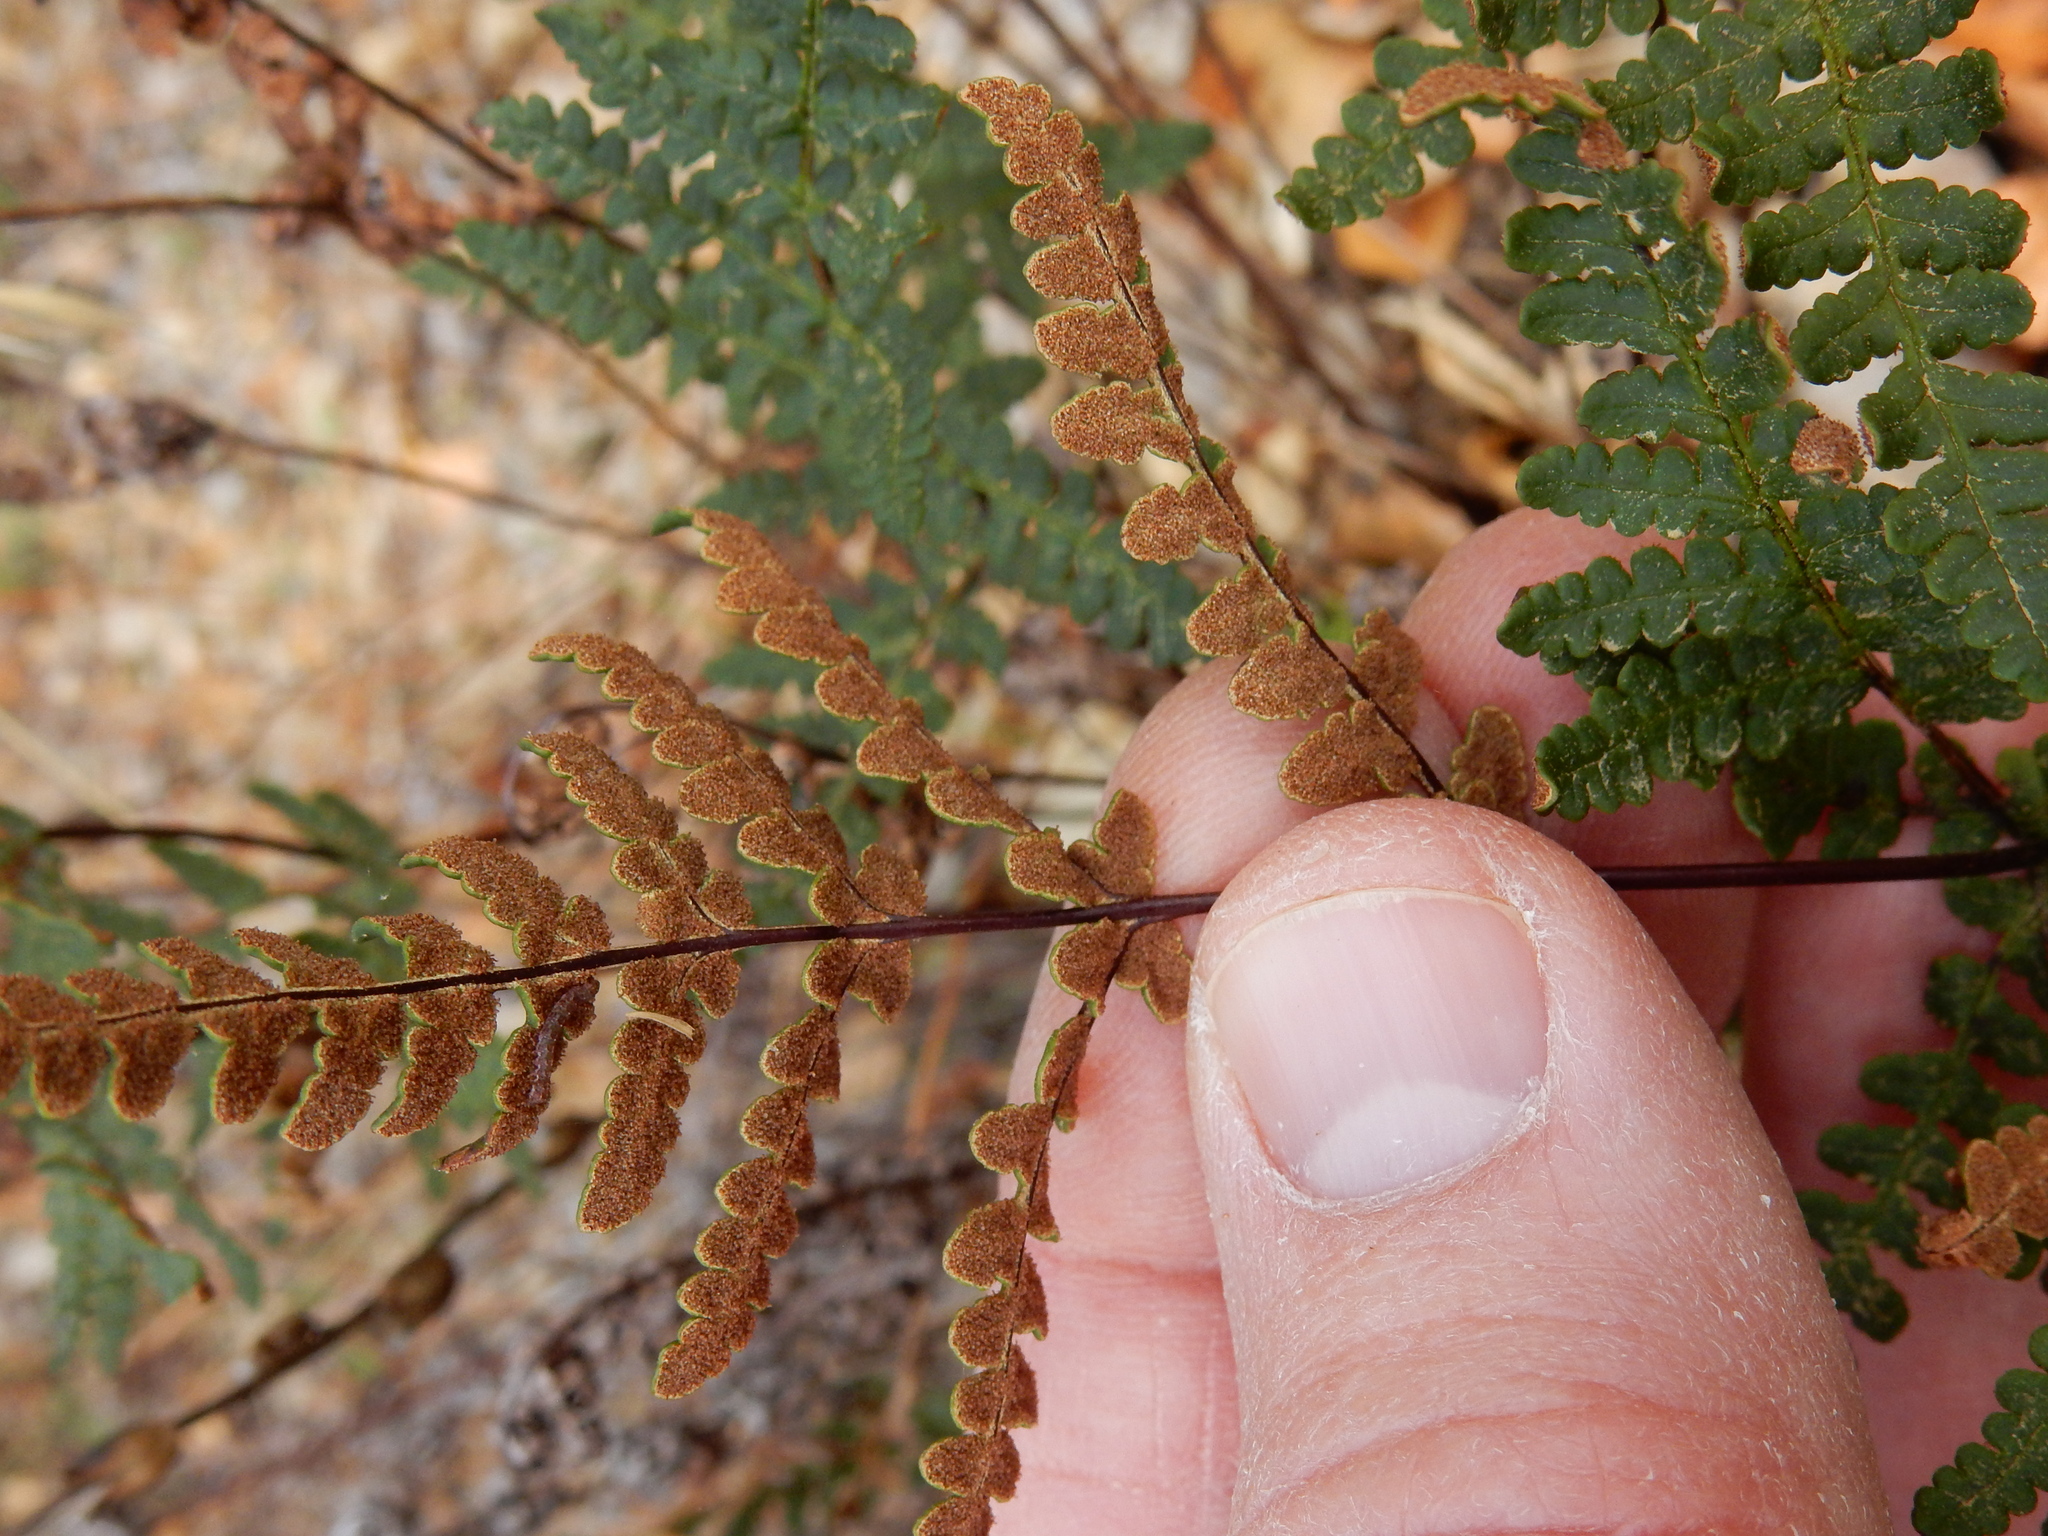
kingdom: Plantae
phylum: Tracheophyta
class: Polypodiopsida
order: Polypodiales
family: Pteridaceae
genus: Pentagramma
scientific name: Pentagramma triangularis
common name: Gold fern
